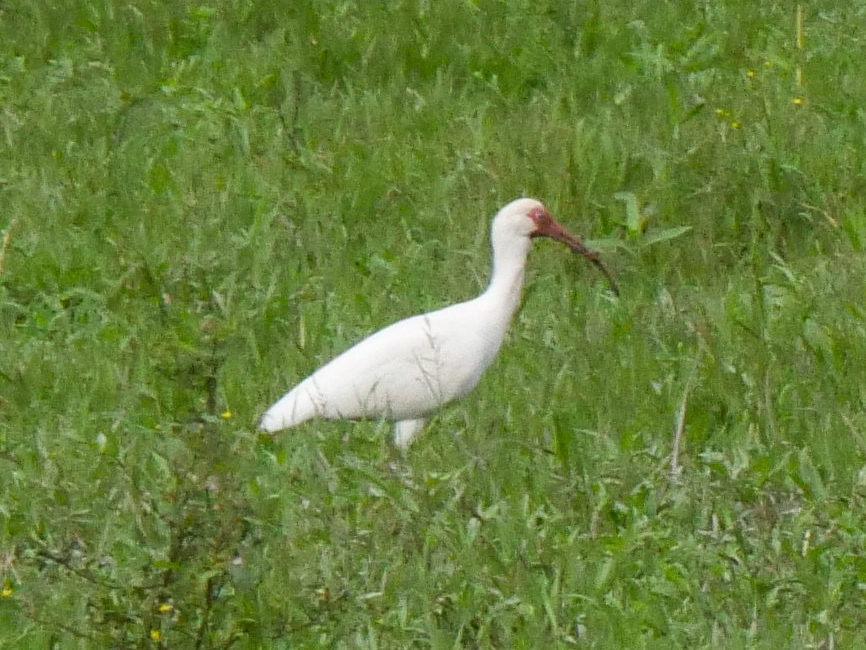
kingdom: Animalia
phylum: Chordata
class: Aves
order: Pelecaniformes
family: Threskiornithidae
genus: Eudocimus
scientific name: Eudocimus albus
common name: White ibis
